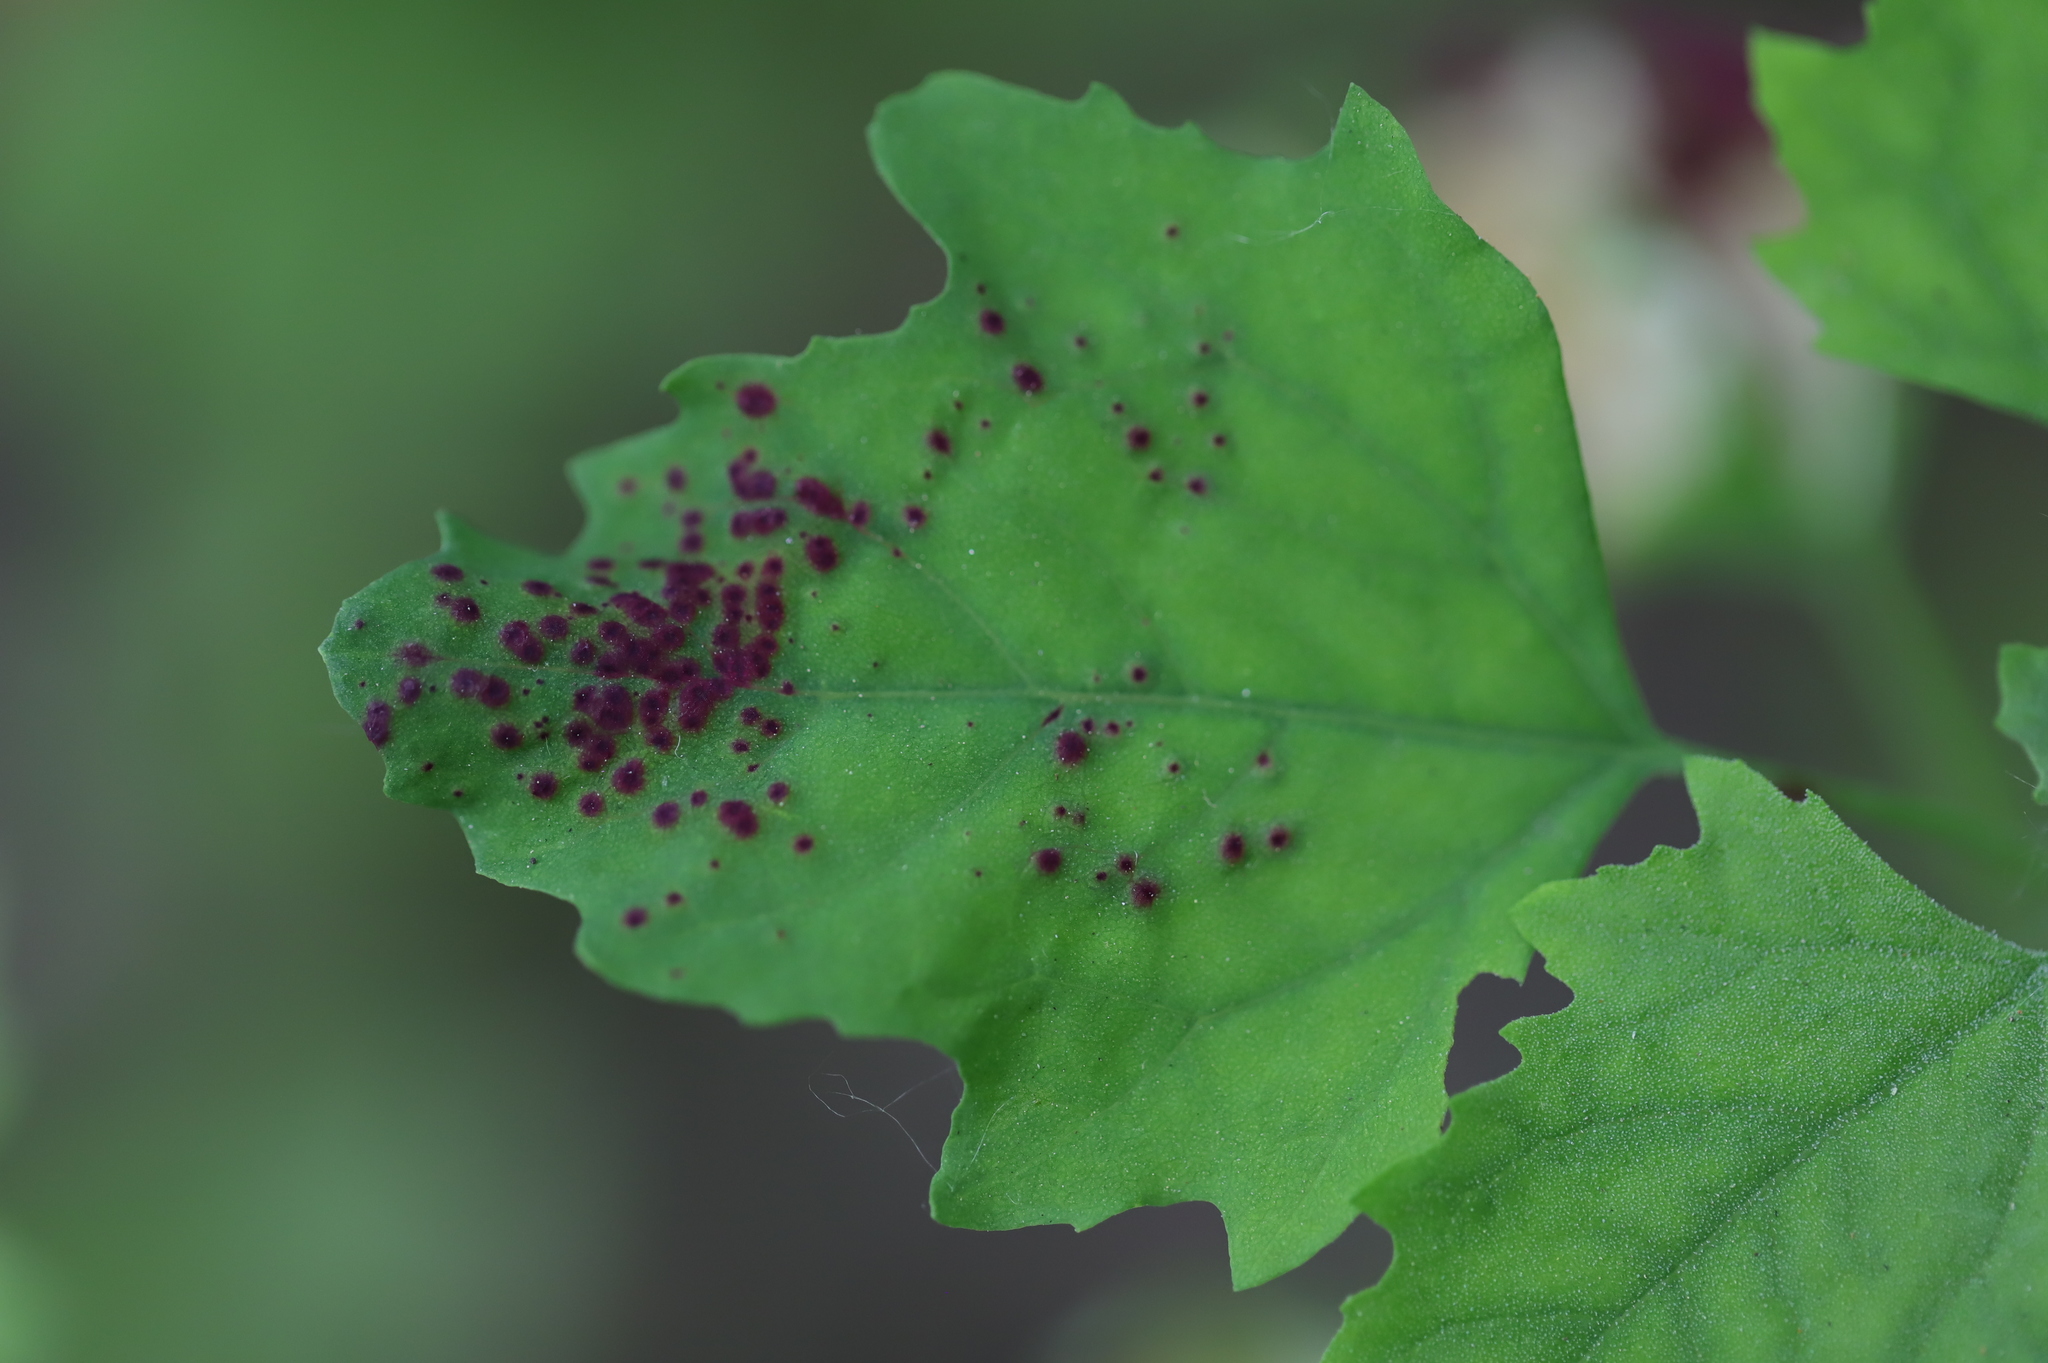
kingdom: Animalia
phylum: Arthropoda
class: Insecta
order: Hemiptera
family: Cicadellidae
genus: Norvellina
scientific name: Norvellina chenopodii
